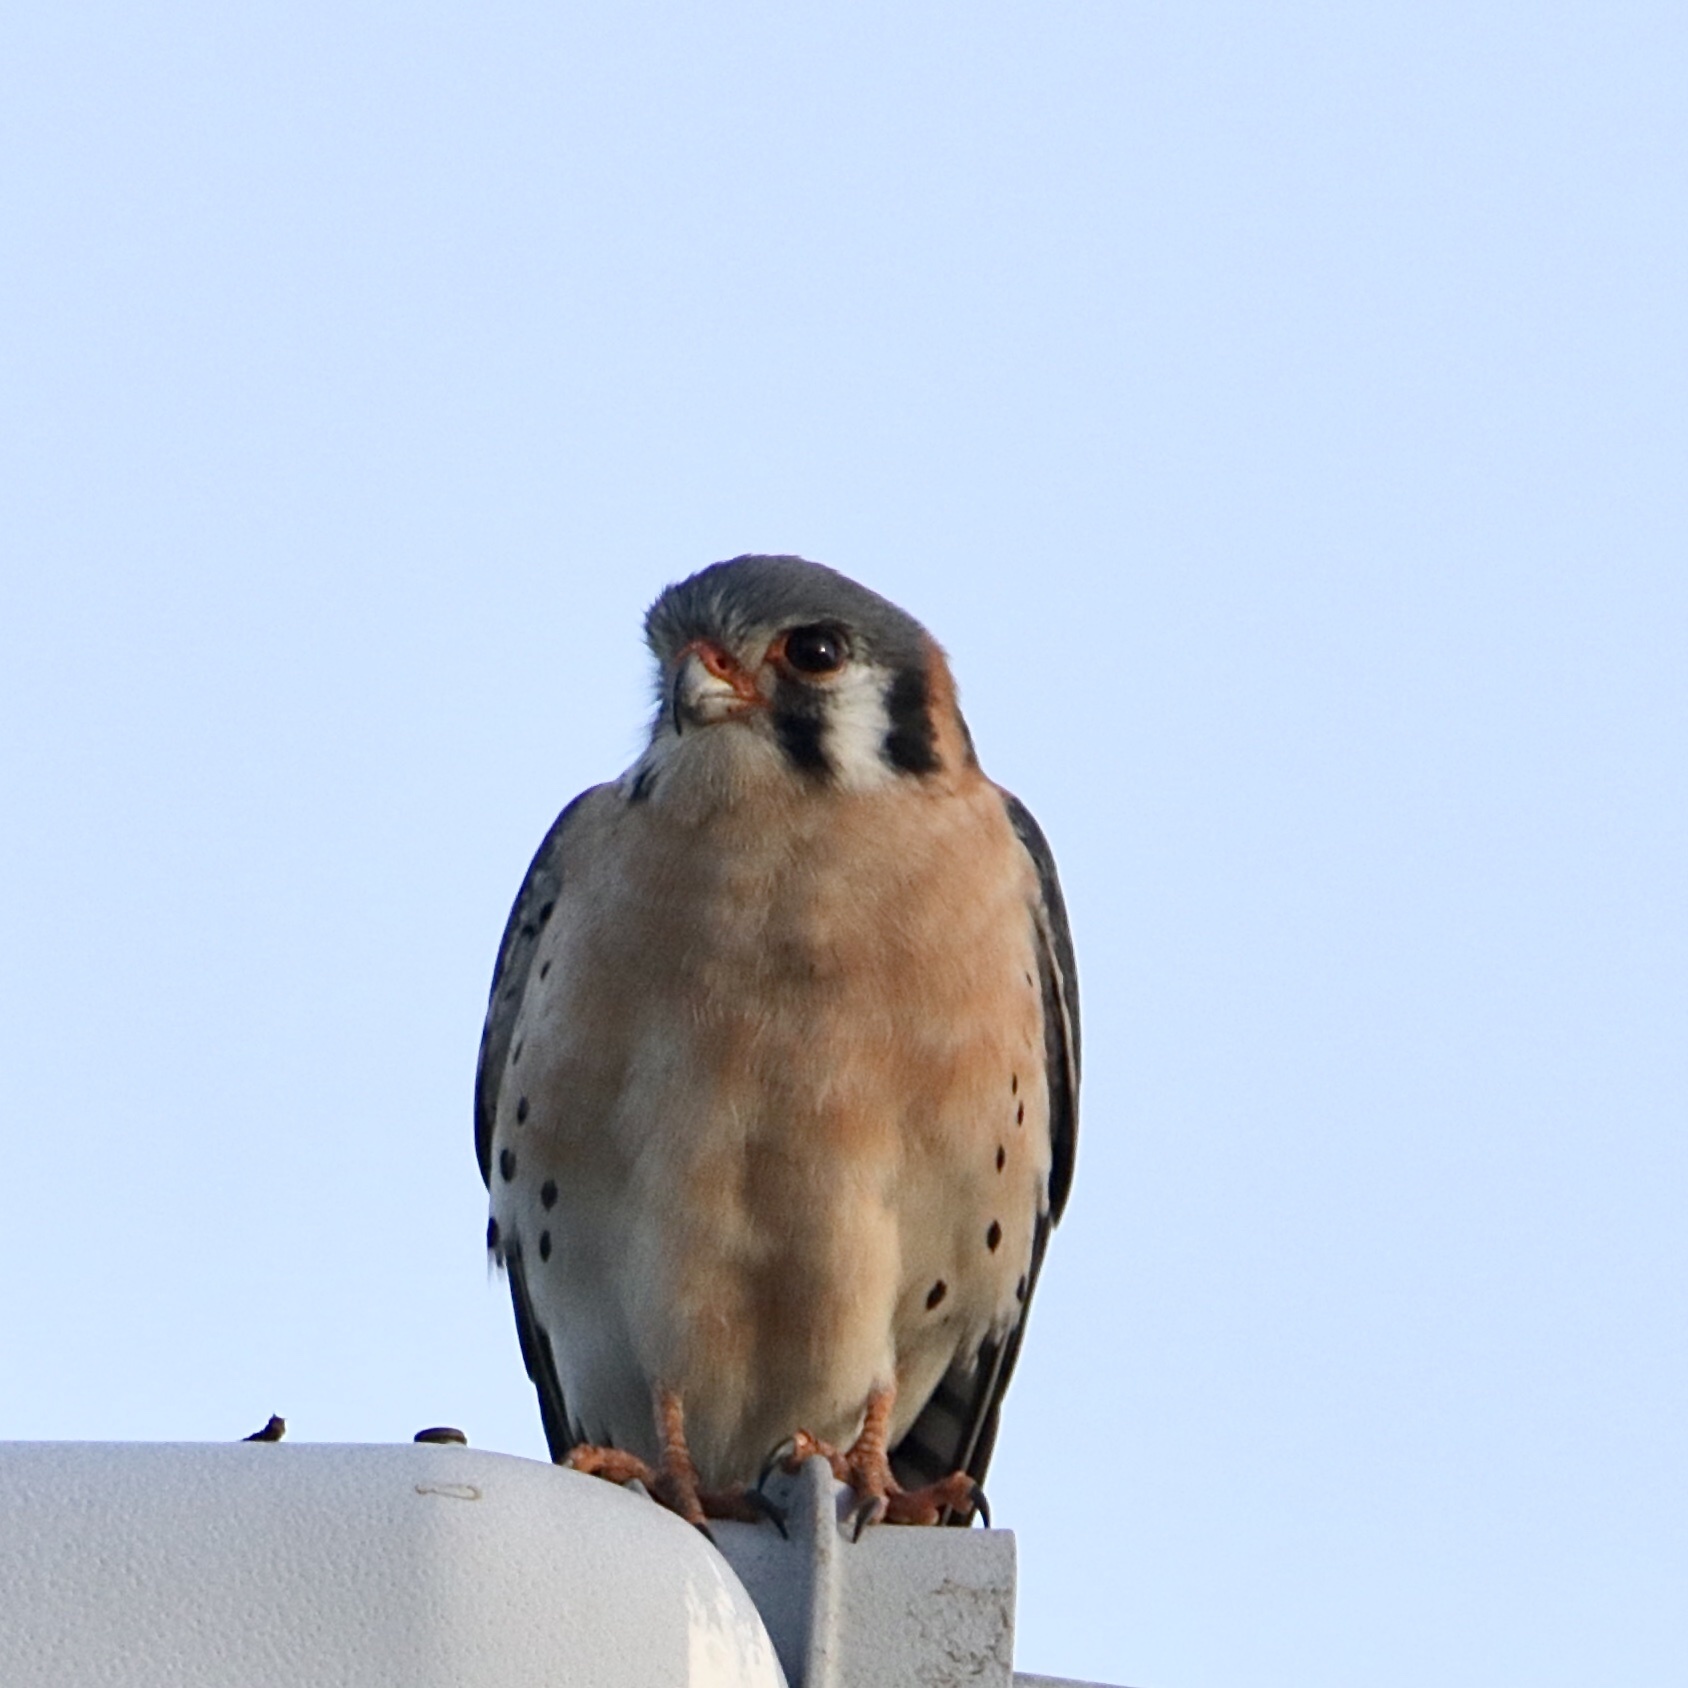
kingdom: Animalia
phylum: Chordata
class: Aves
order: Falconiformes
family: Falconidae
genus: Falco
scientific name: Falco sparverius
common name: American kestrel
